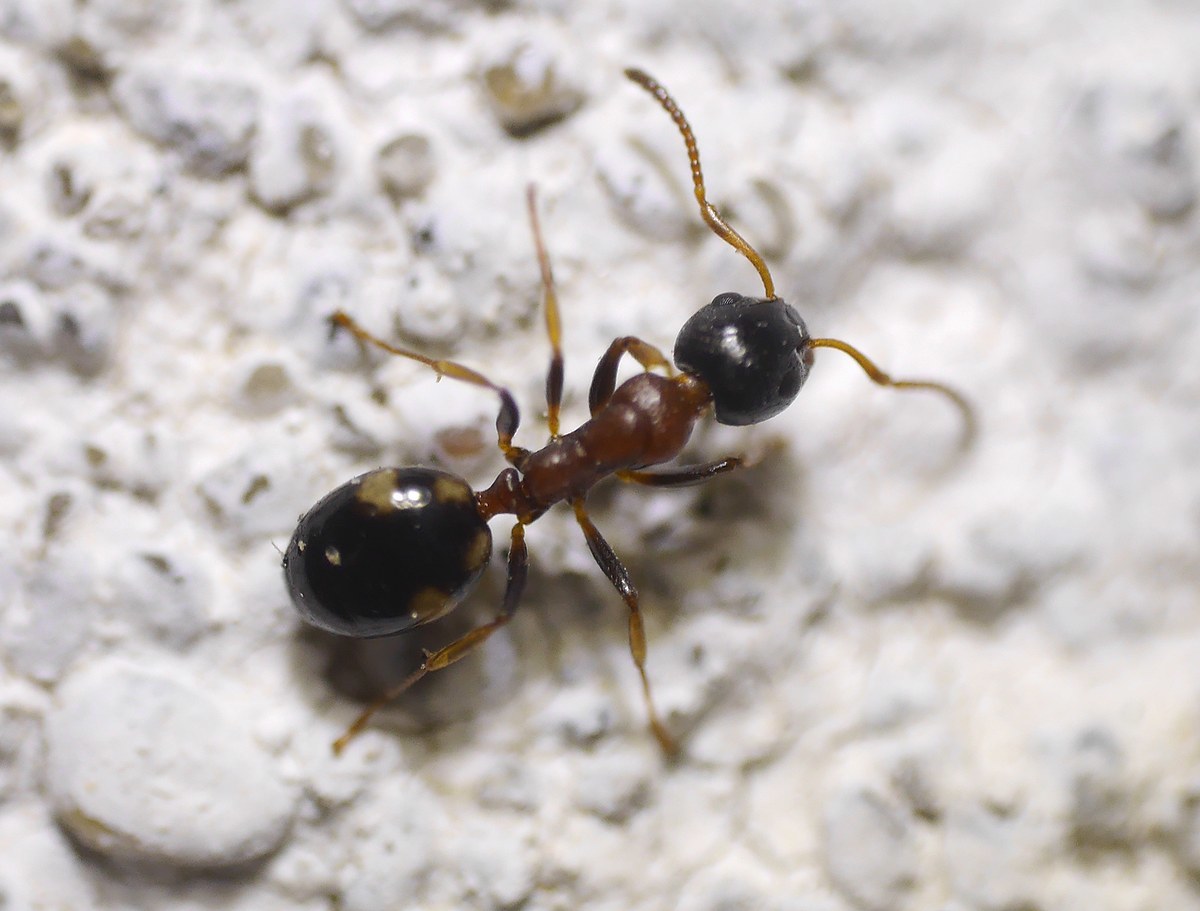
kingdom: Animalia
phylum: Arthropoda
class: Insecta
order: Hymenoptera
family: Formicidae
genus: Dolichoderus
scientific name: Dolichoderus quadripunctatus
